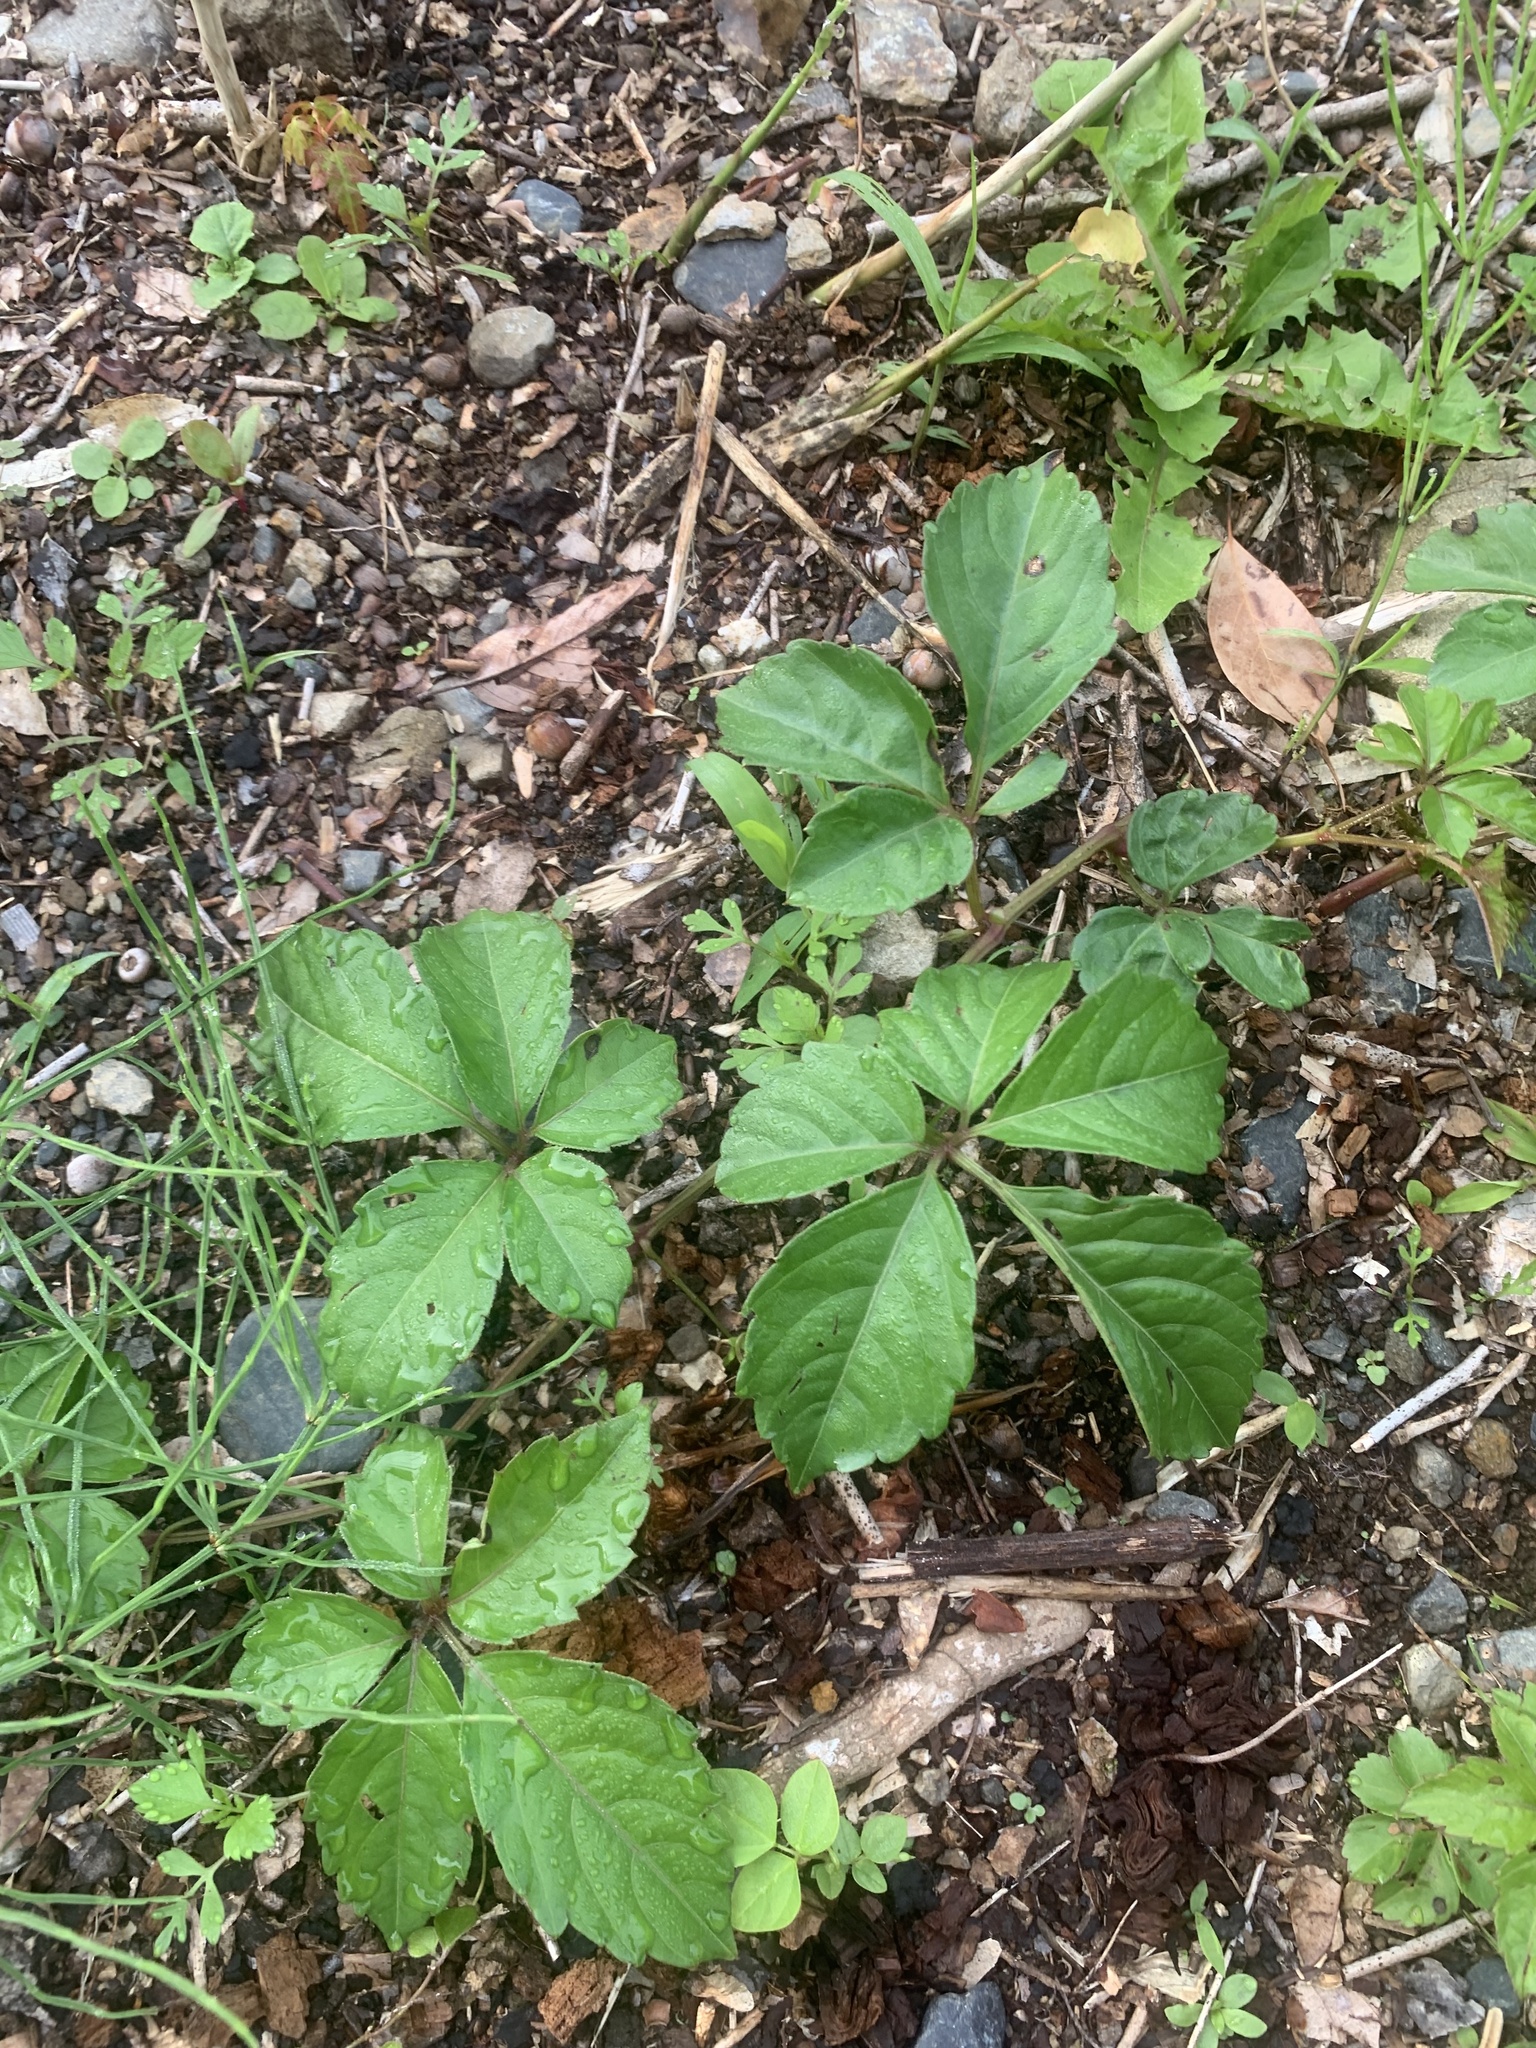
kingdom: Plantae
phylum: Tracheophyta
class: Magnoliopsida
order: Vitales
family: Vitaceae
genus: Causonis
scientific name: Causonis japonica
